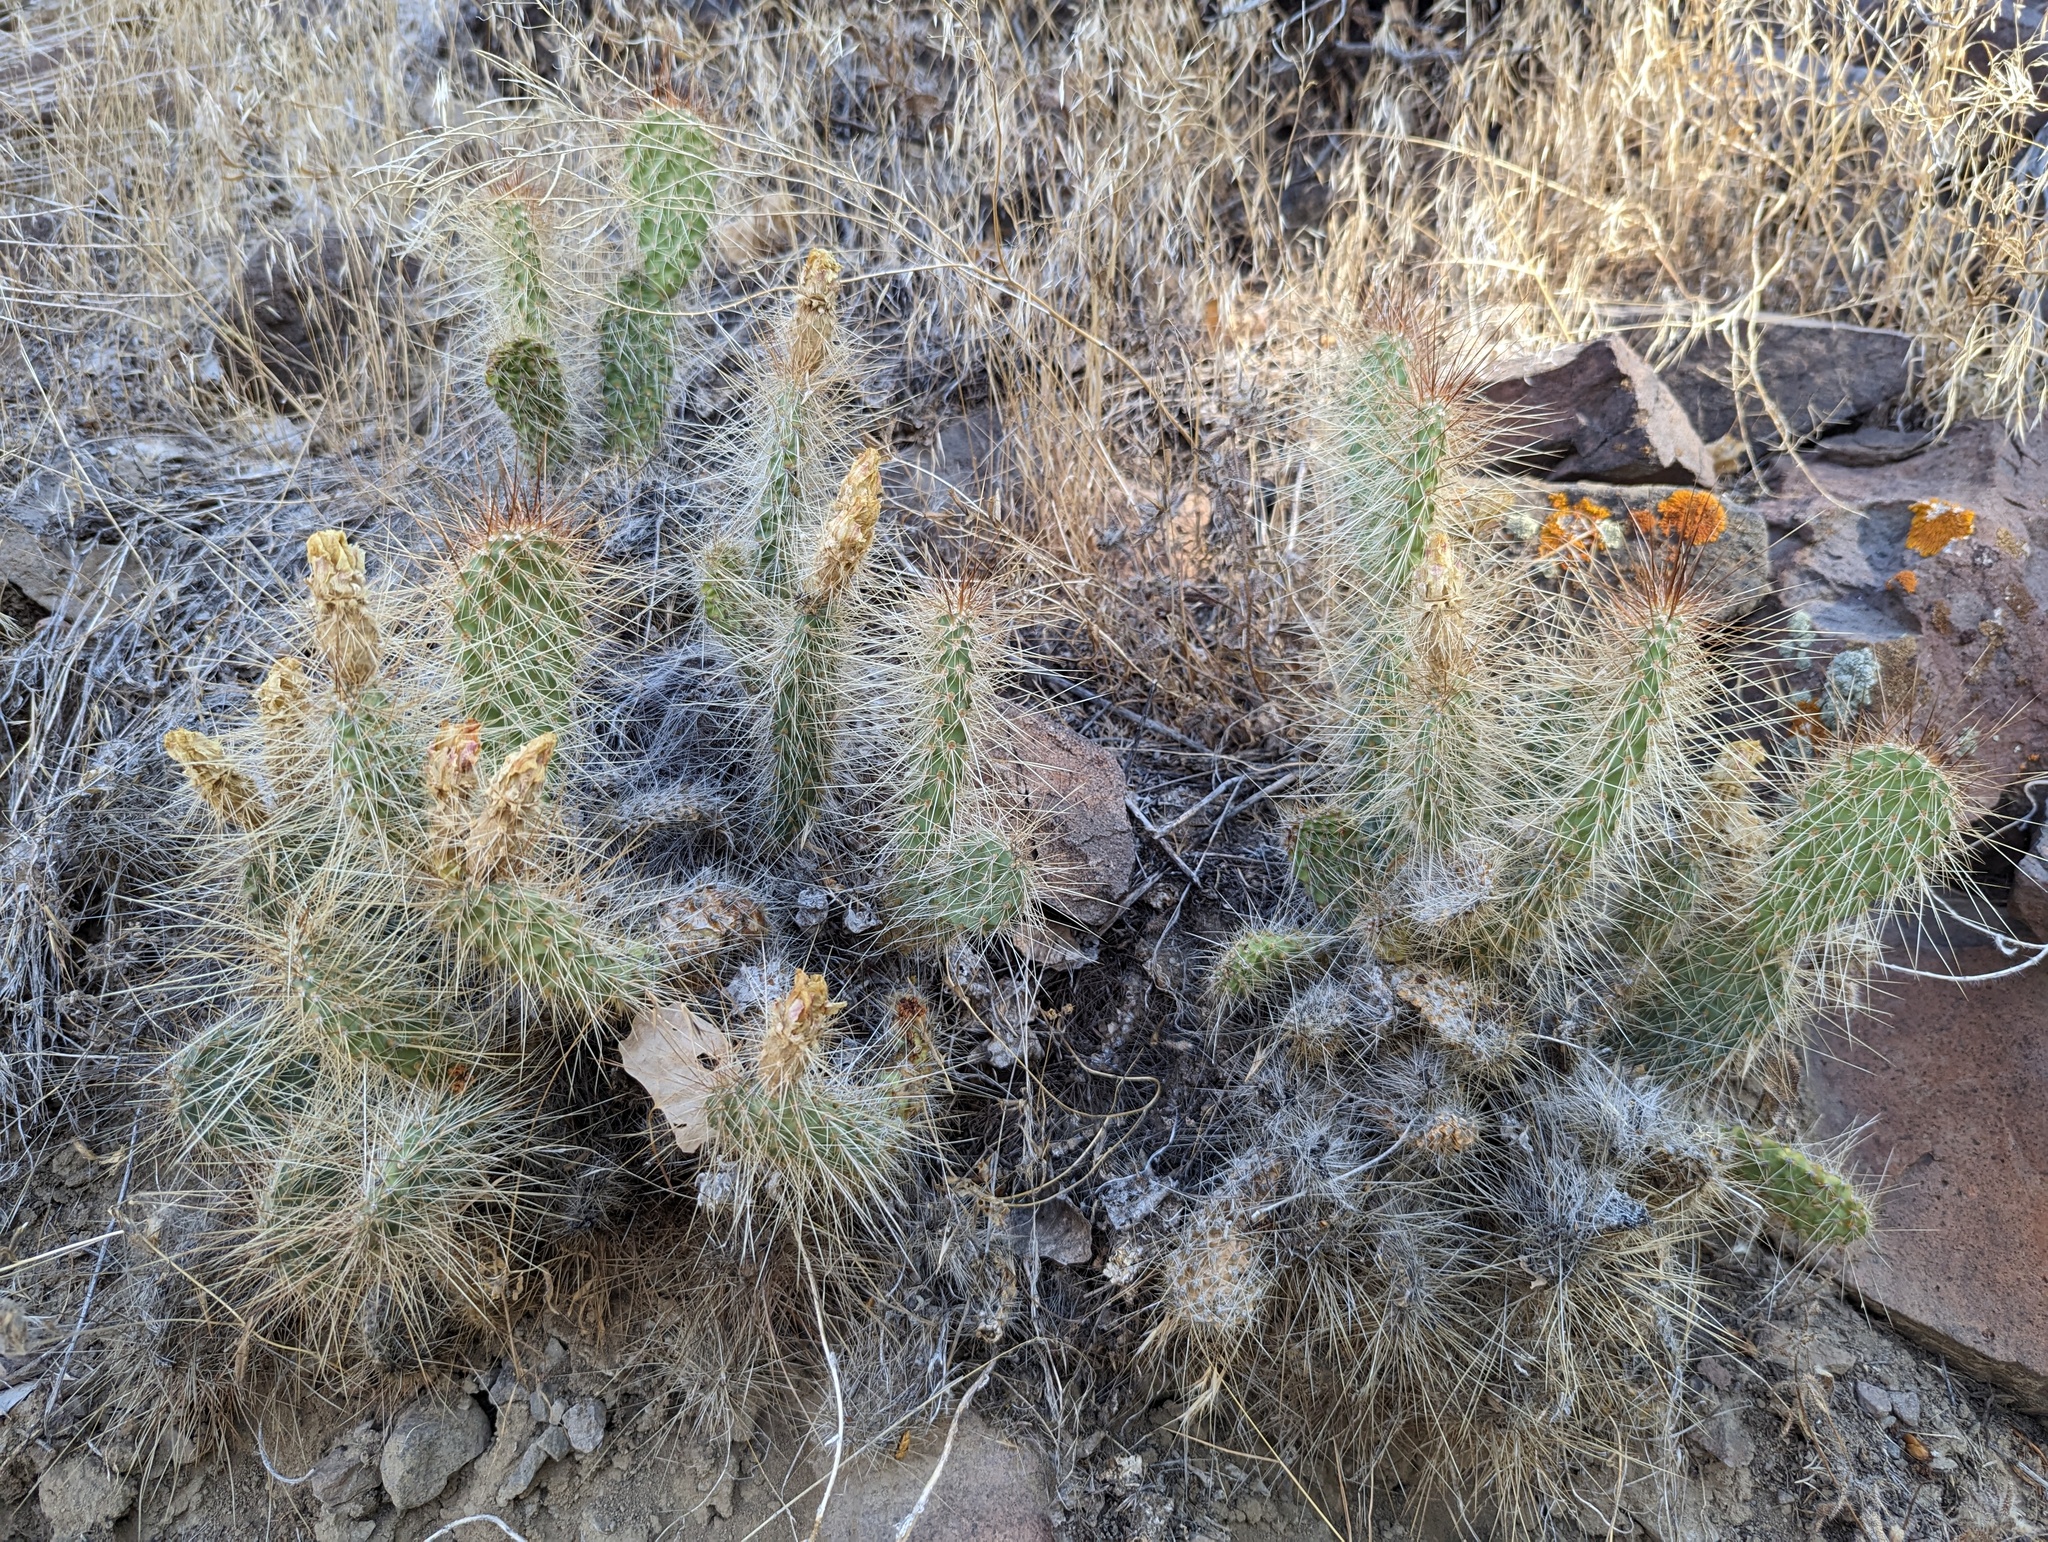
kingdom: Plantae
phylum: Tracheophyta
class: Magnoliopsida
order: Caryophyllales
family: Cactaceae
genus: Opuntia
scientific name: Opuntia polyacantha
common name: Plains prickly-pear
